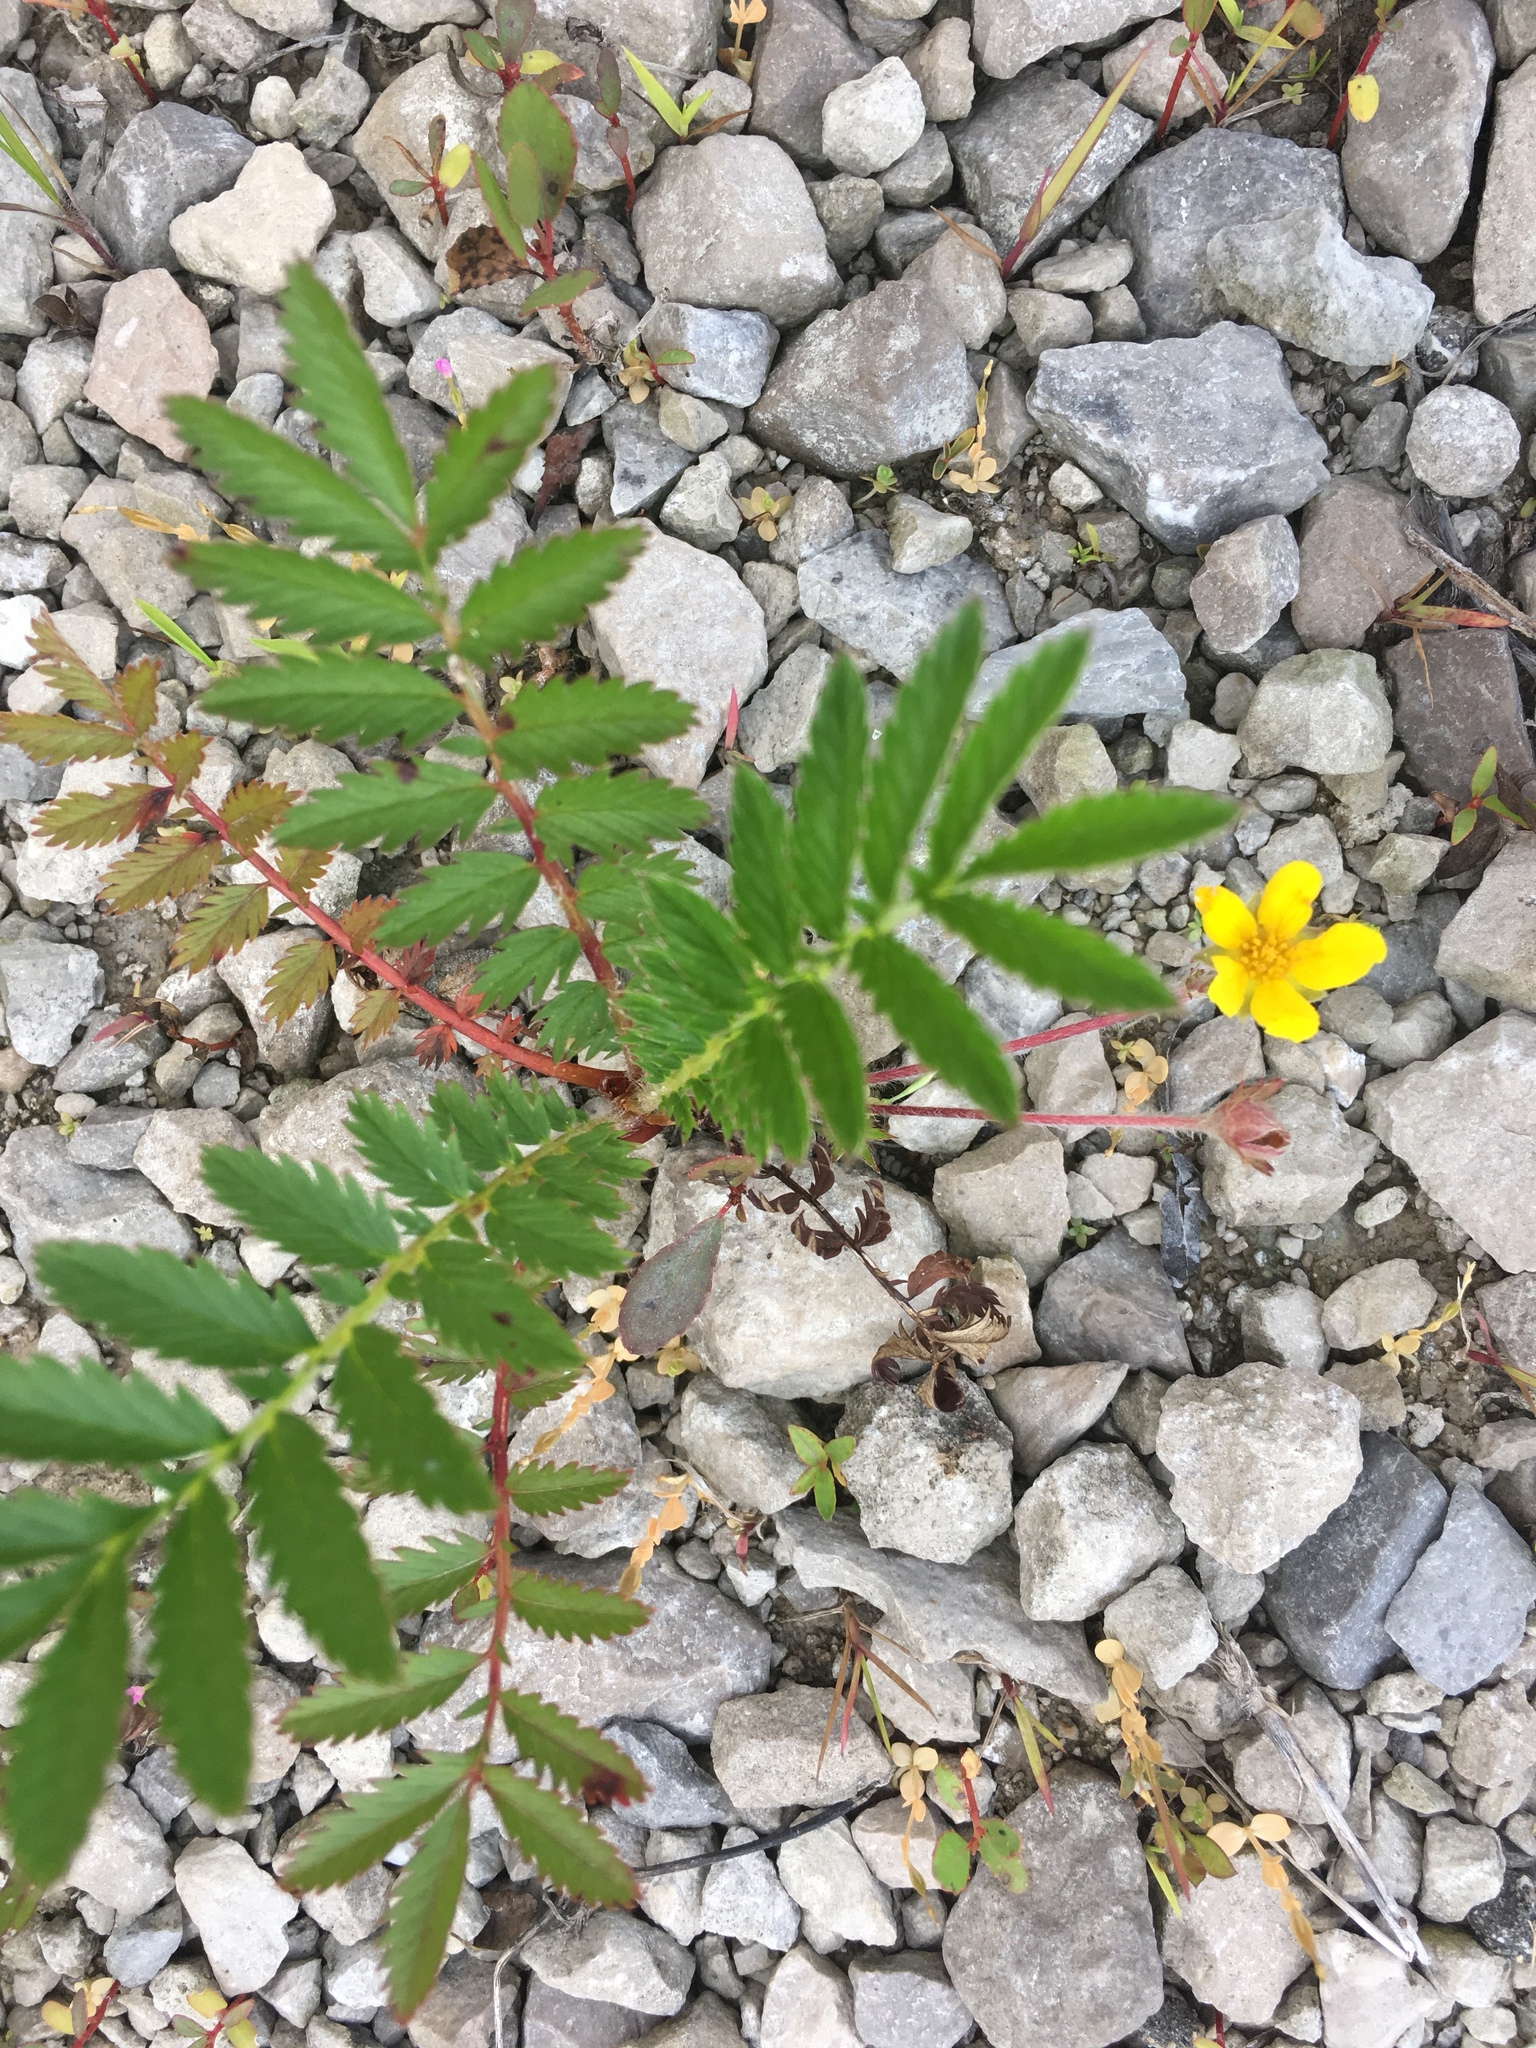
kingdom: Plantae
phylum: Tracheophyta
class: Magnoliopsida
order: Rosales
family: Rosaceae
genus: Argentina
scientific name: Argentina anserina
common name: Common silverweed
